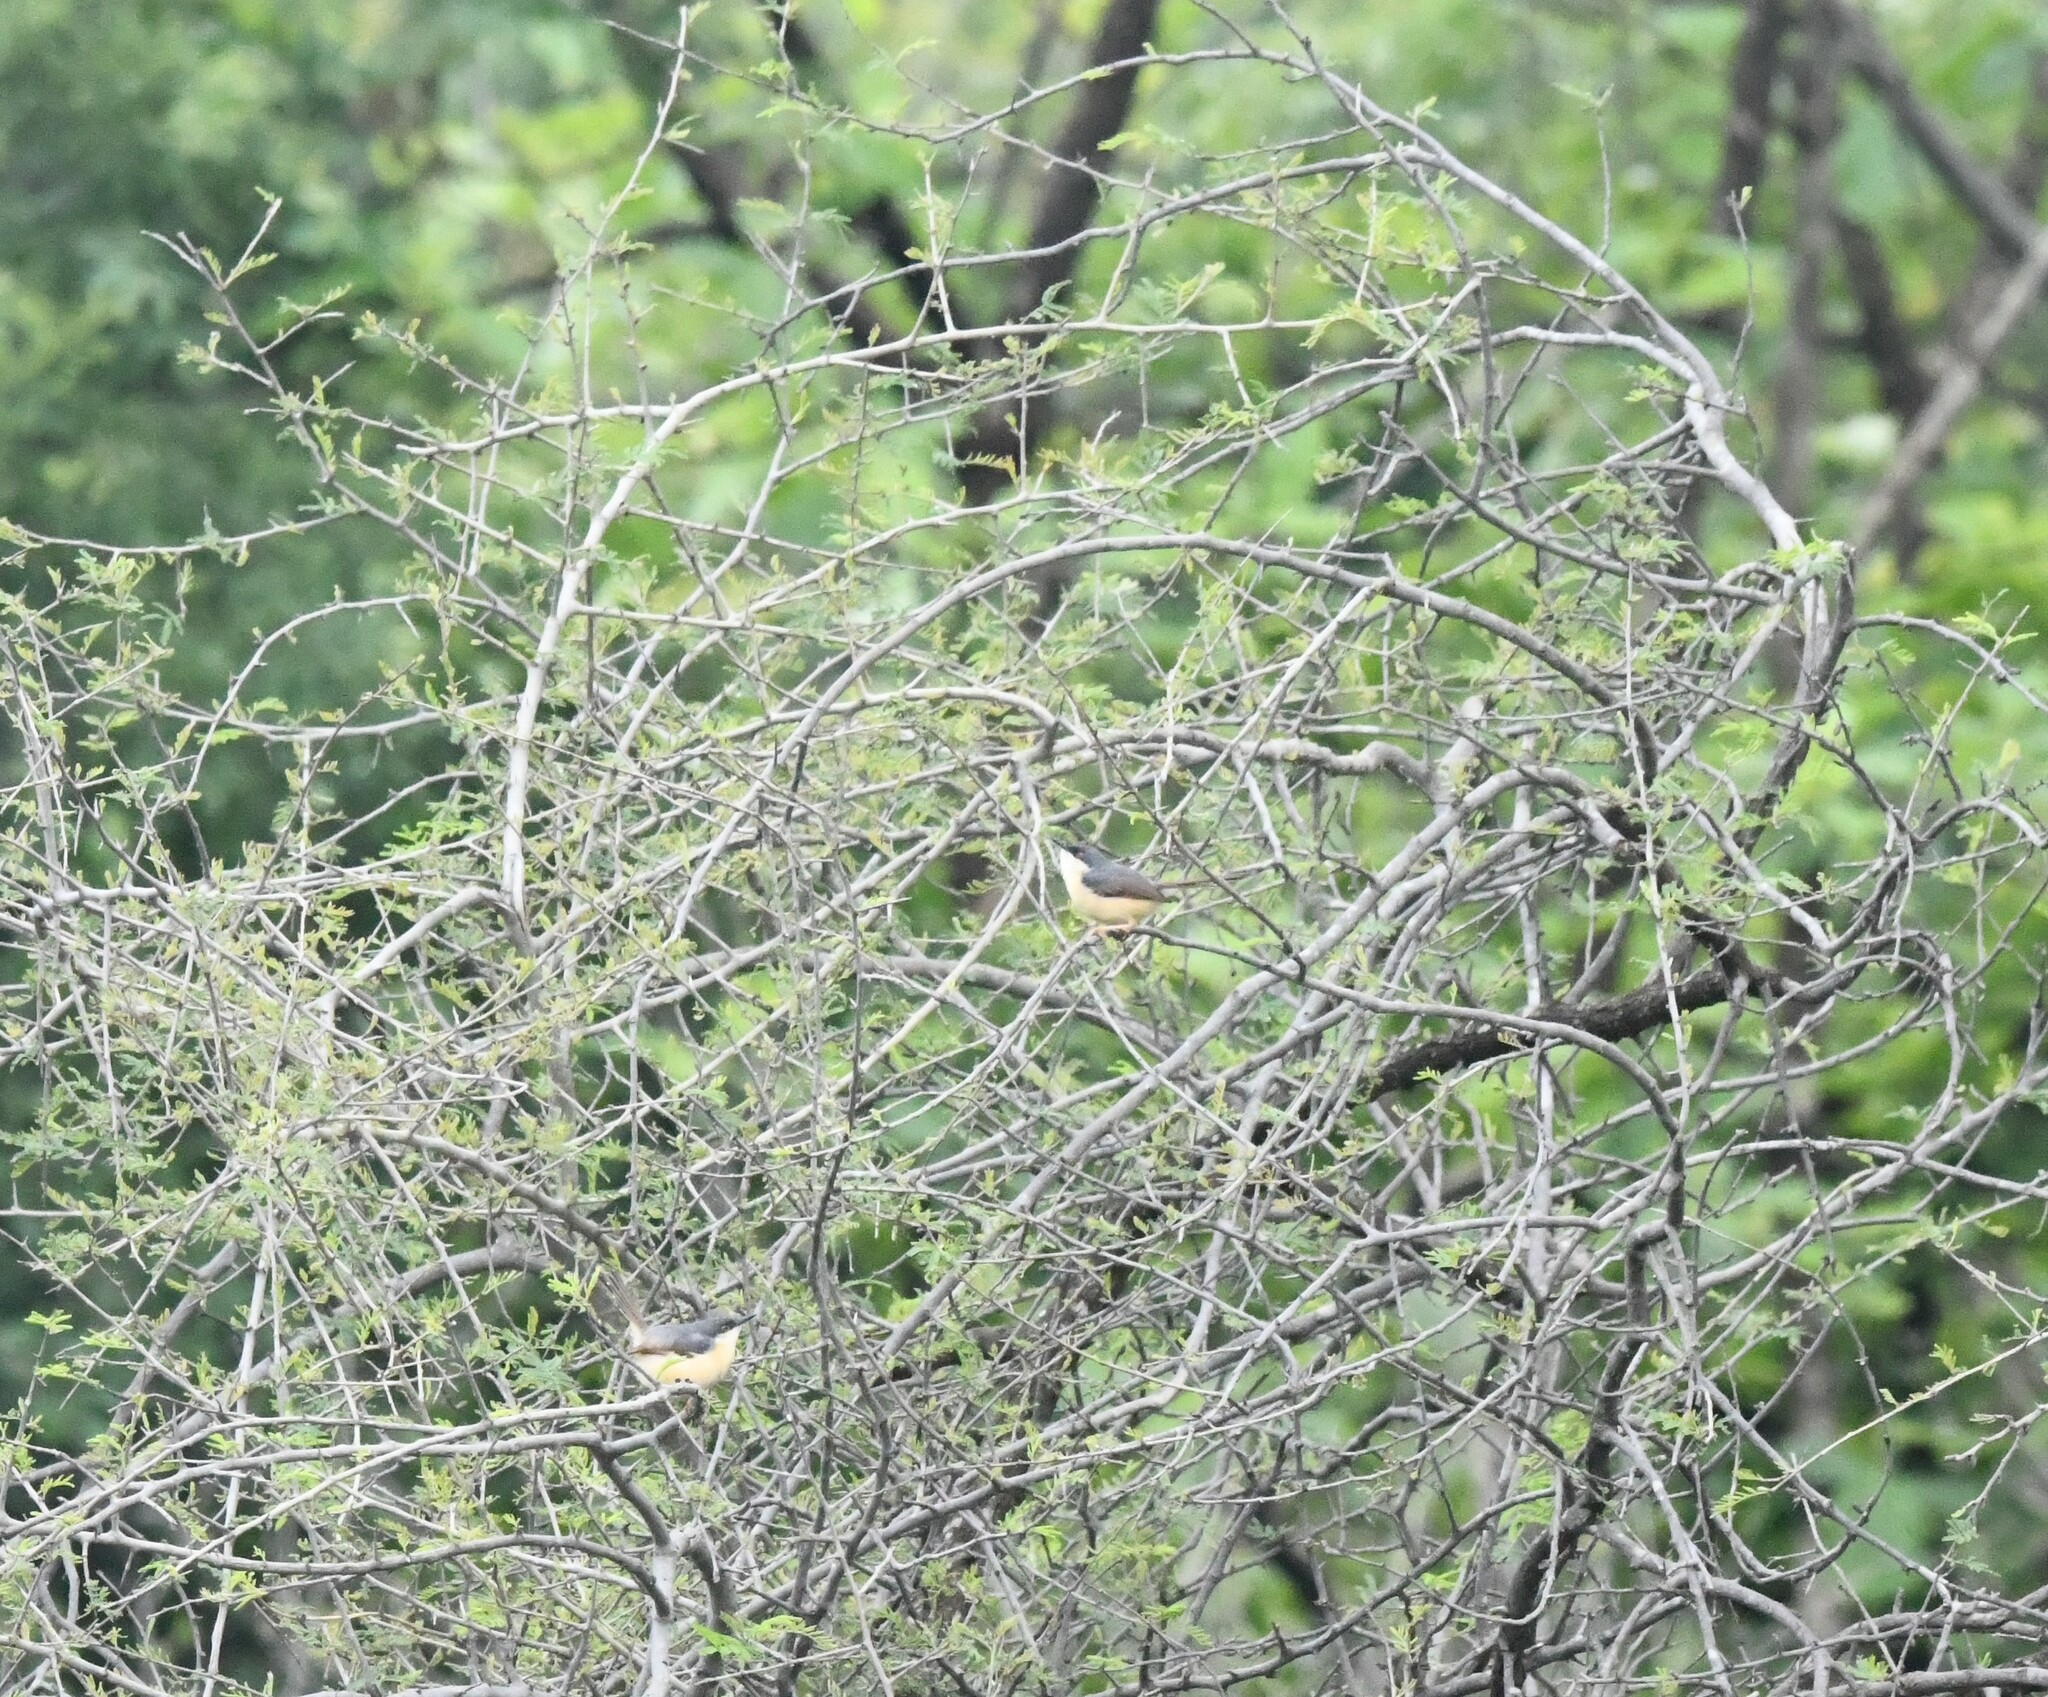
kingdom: Animalia
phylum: Chordata
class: Aves
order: Passeriformes
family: Cisticolidae
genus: Prinia
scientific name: Prinia socialis
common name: Ashy prinia
